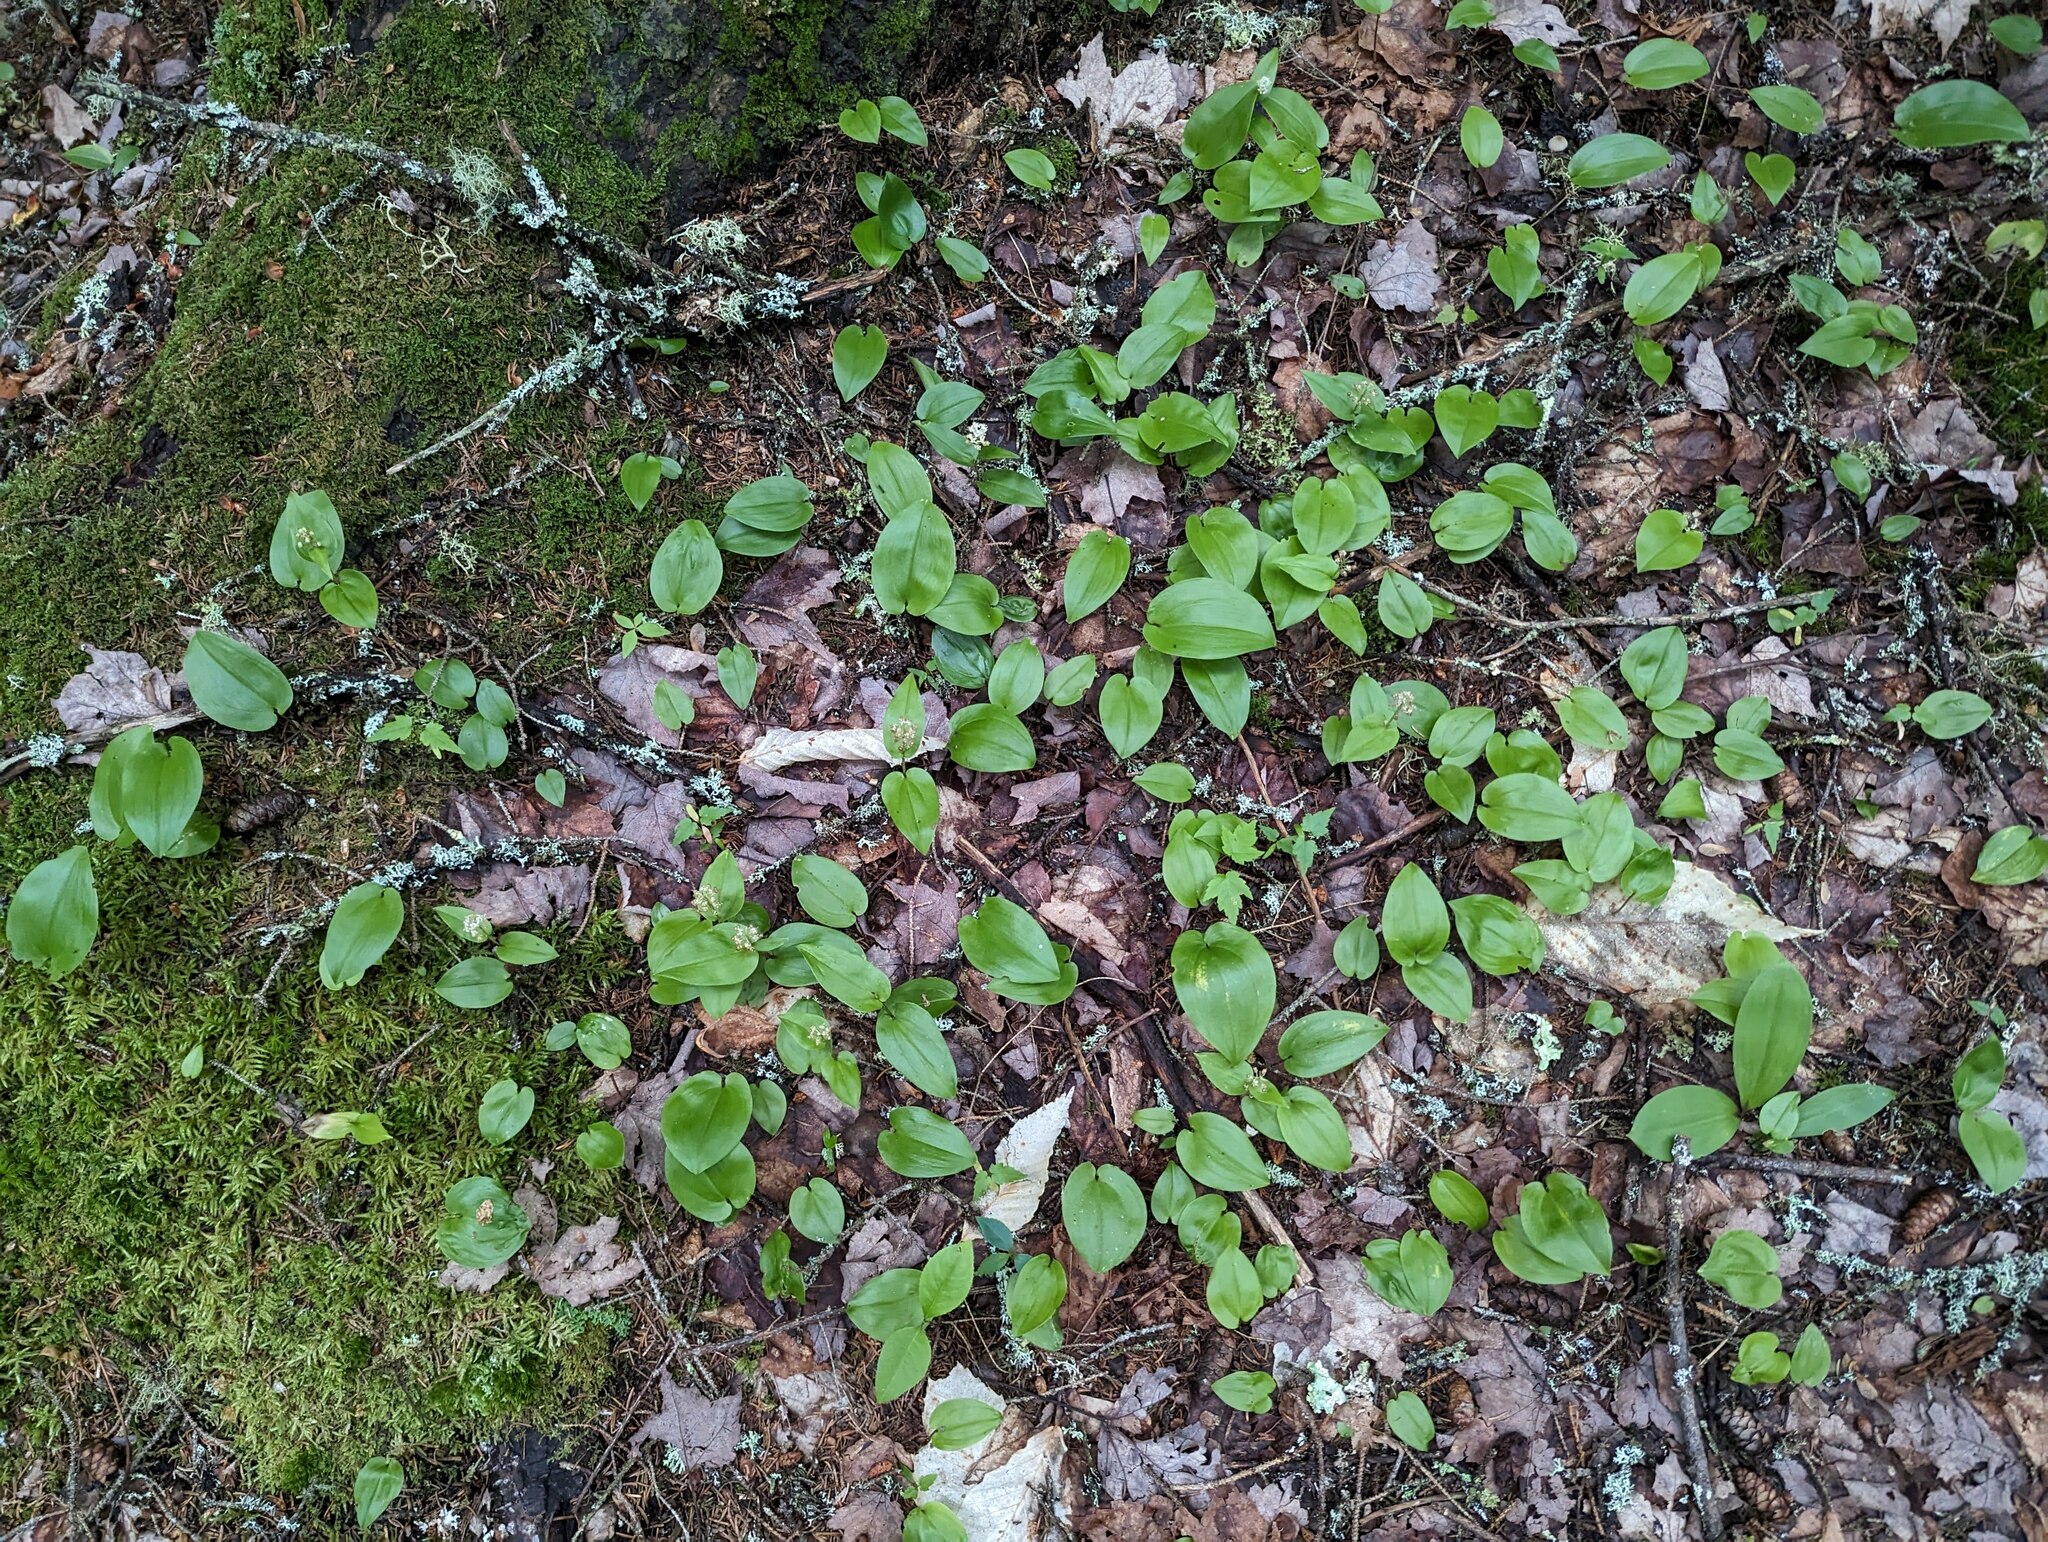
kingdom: Plantae
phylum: Tracheophyta
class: Liliopsida
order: Asparagales
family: Asparagaceae
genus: Maianthemum
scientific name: Maianthemum canadense
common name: False lily-of-the-valley
